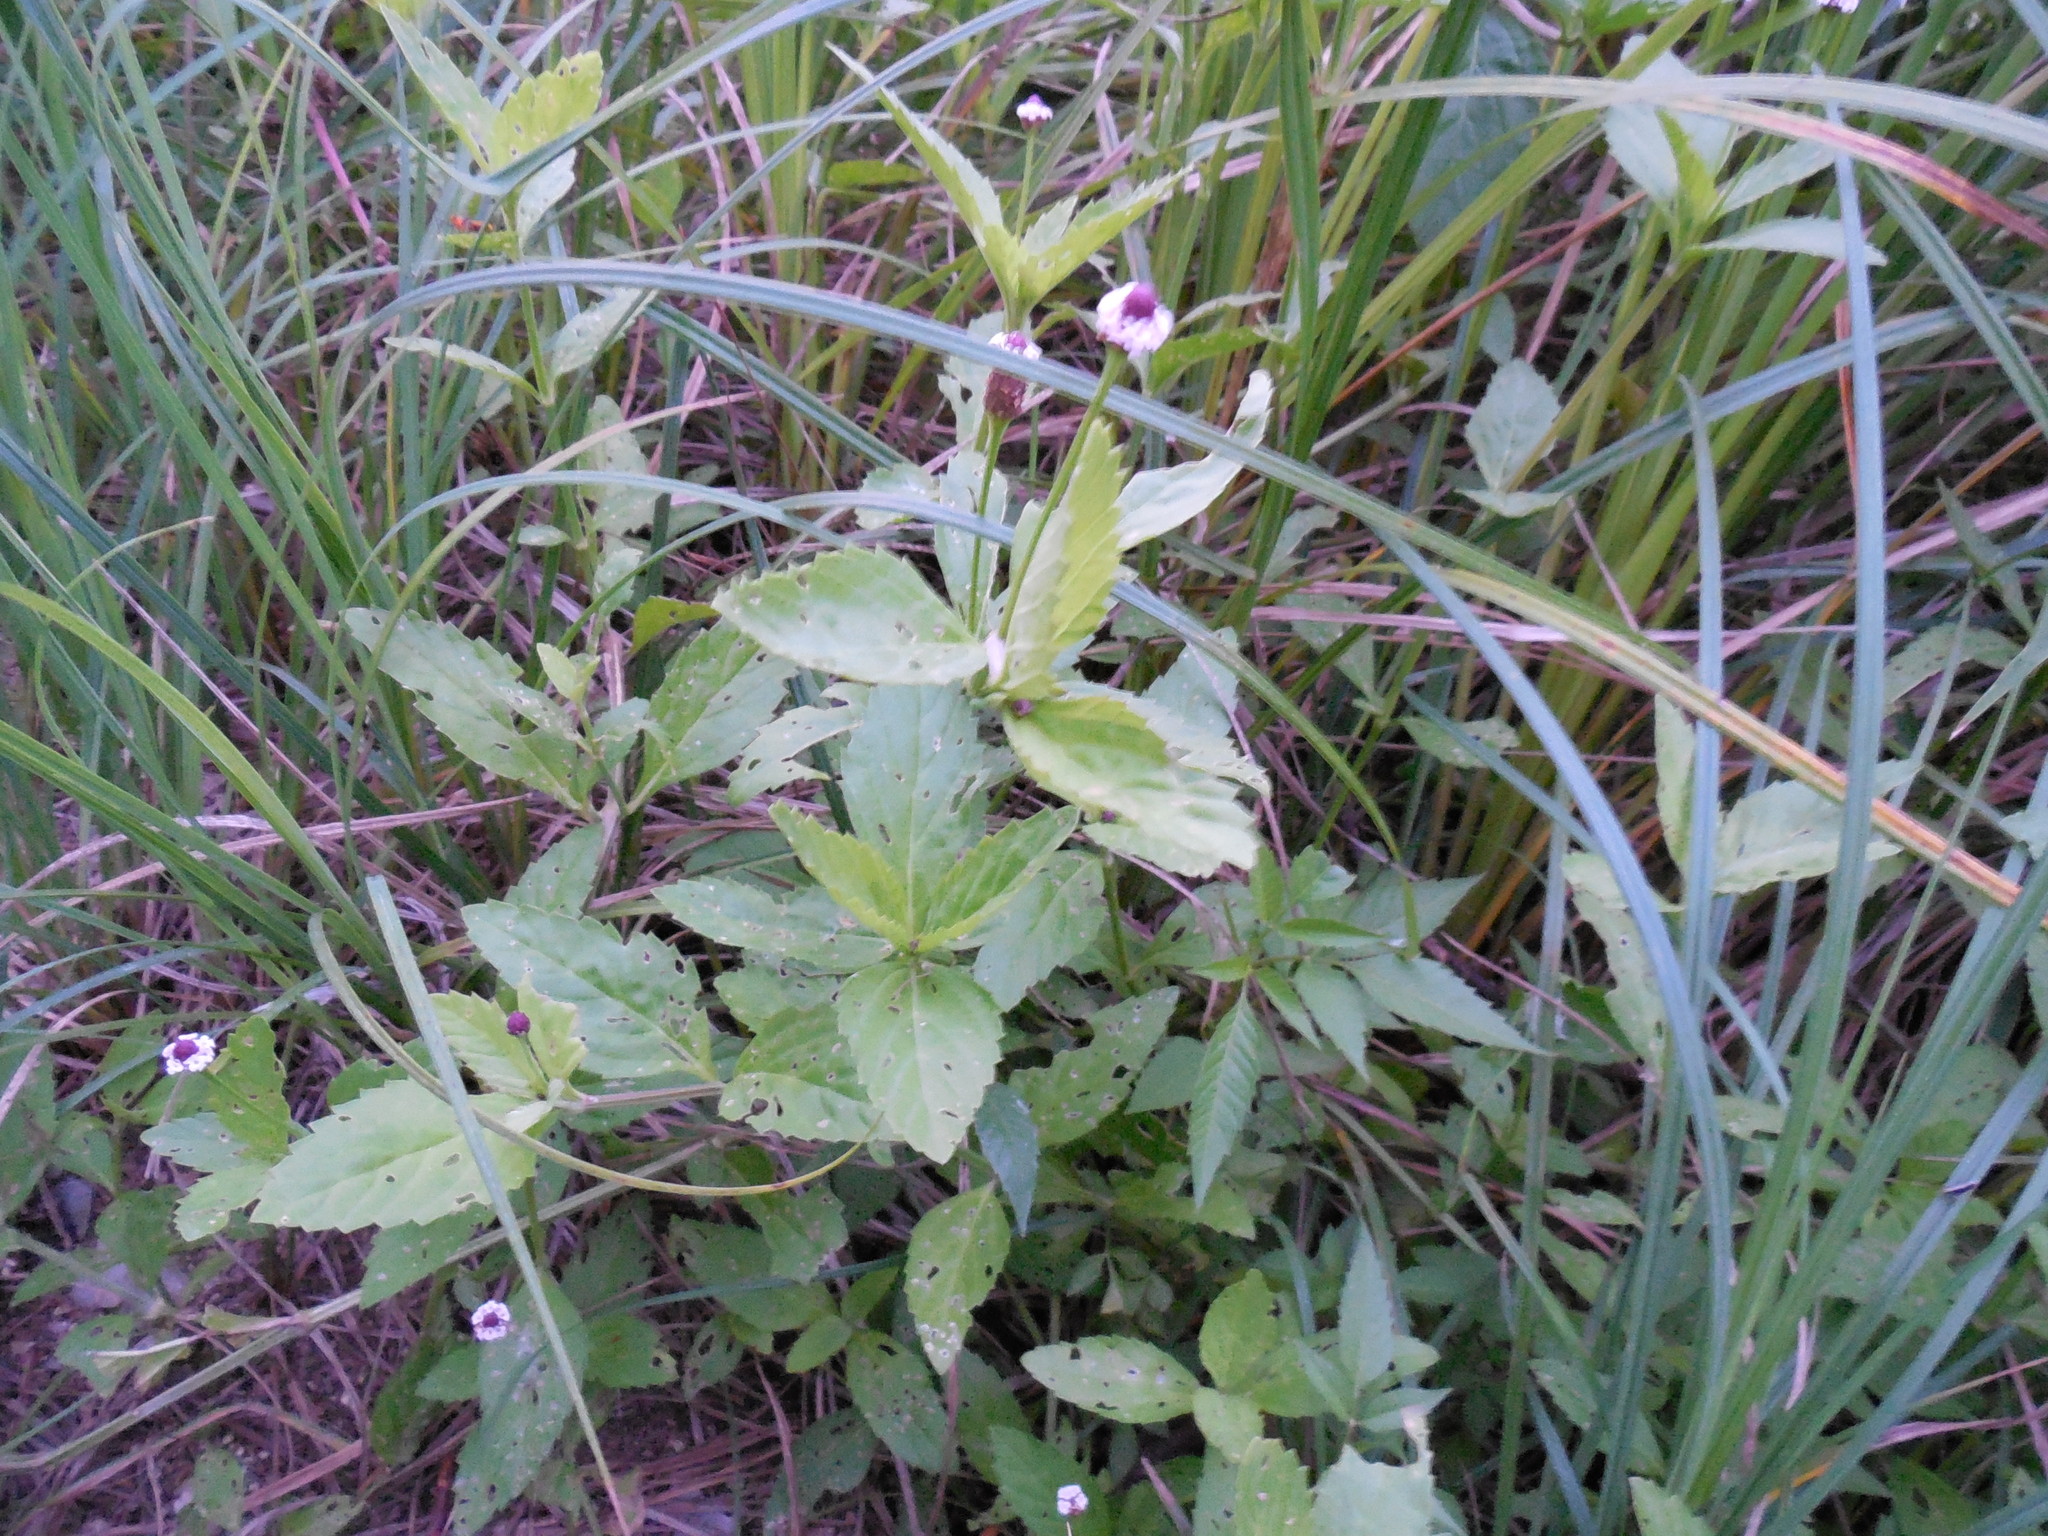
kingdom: Plantae
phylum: Tracheophyta
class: Magnoliopsida
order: Lamiales
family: Verbenaceae
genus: Phyla
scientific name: Phyla lanceolata
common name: Northern fogfruit
